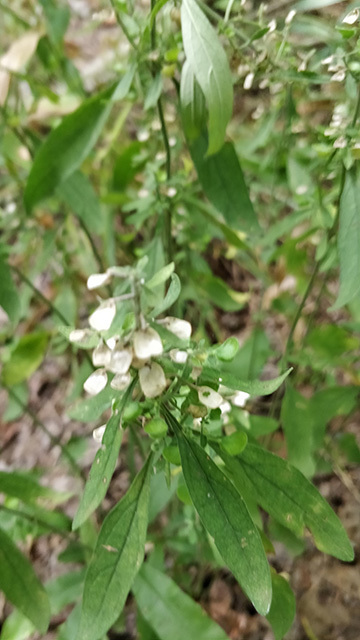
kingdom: Plantae
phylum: Tracheophyta
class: Magnoliopsida
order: Lamiales
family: Lamiaceae
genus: Scutellaria
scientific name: Scutellaria integrifolia
